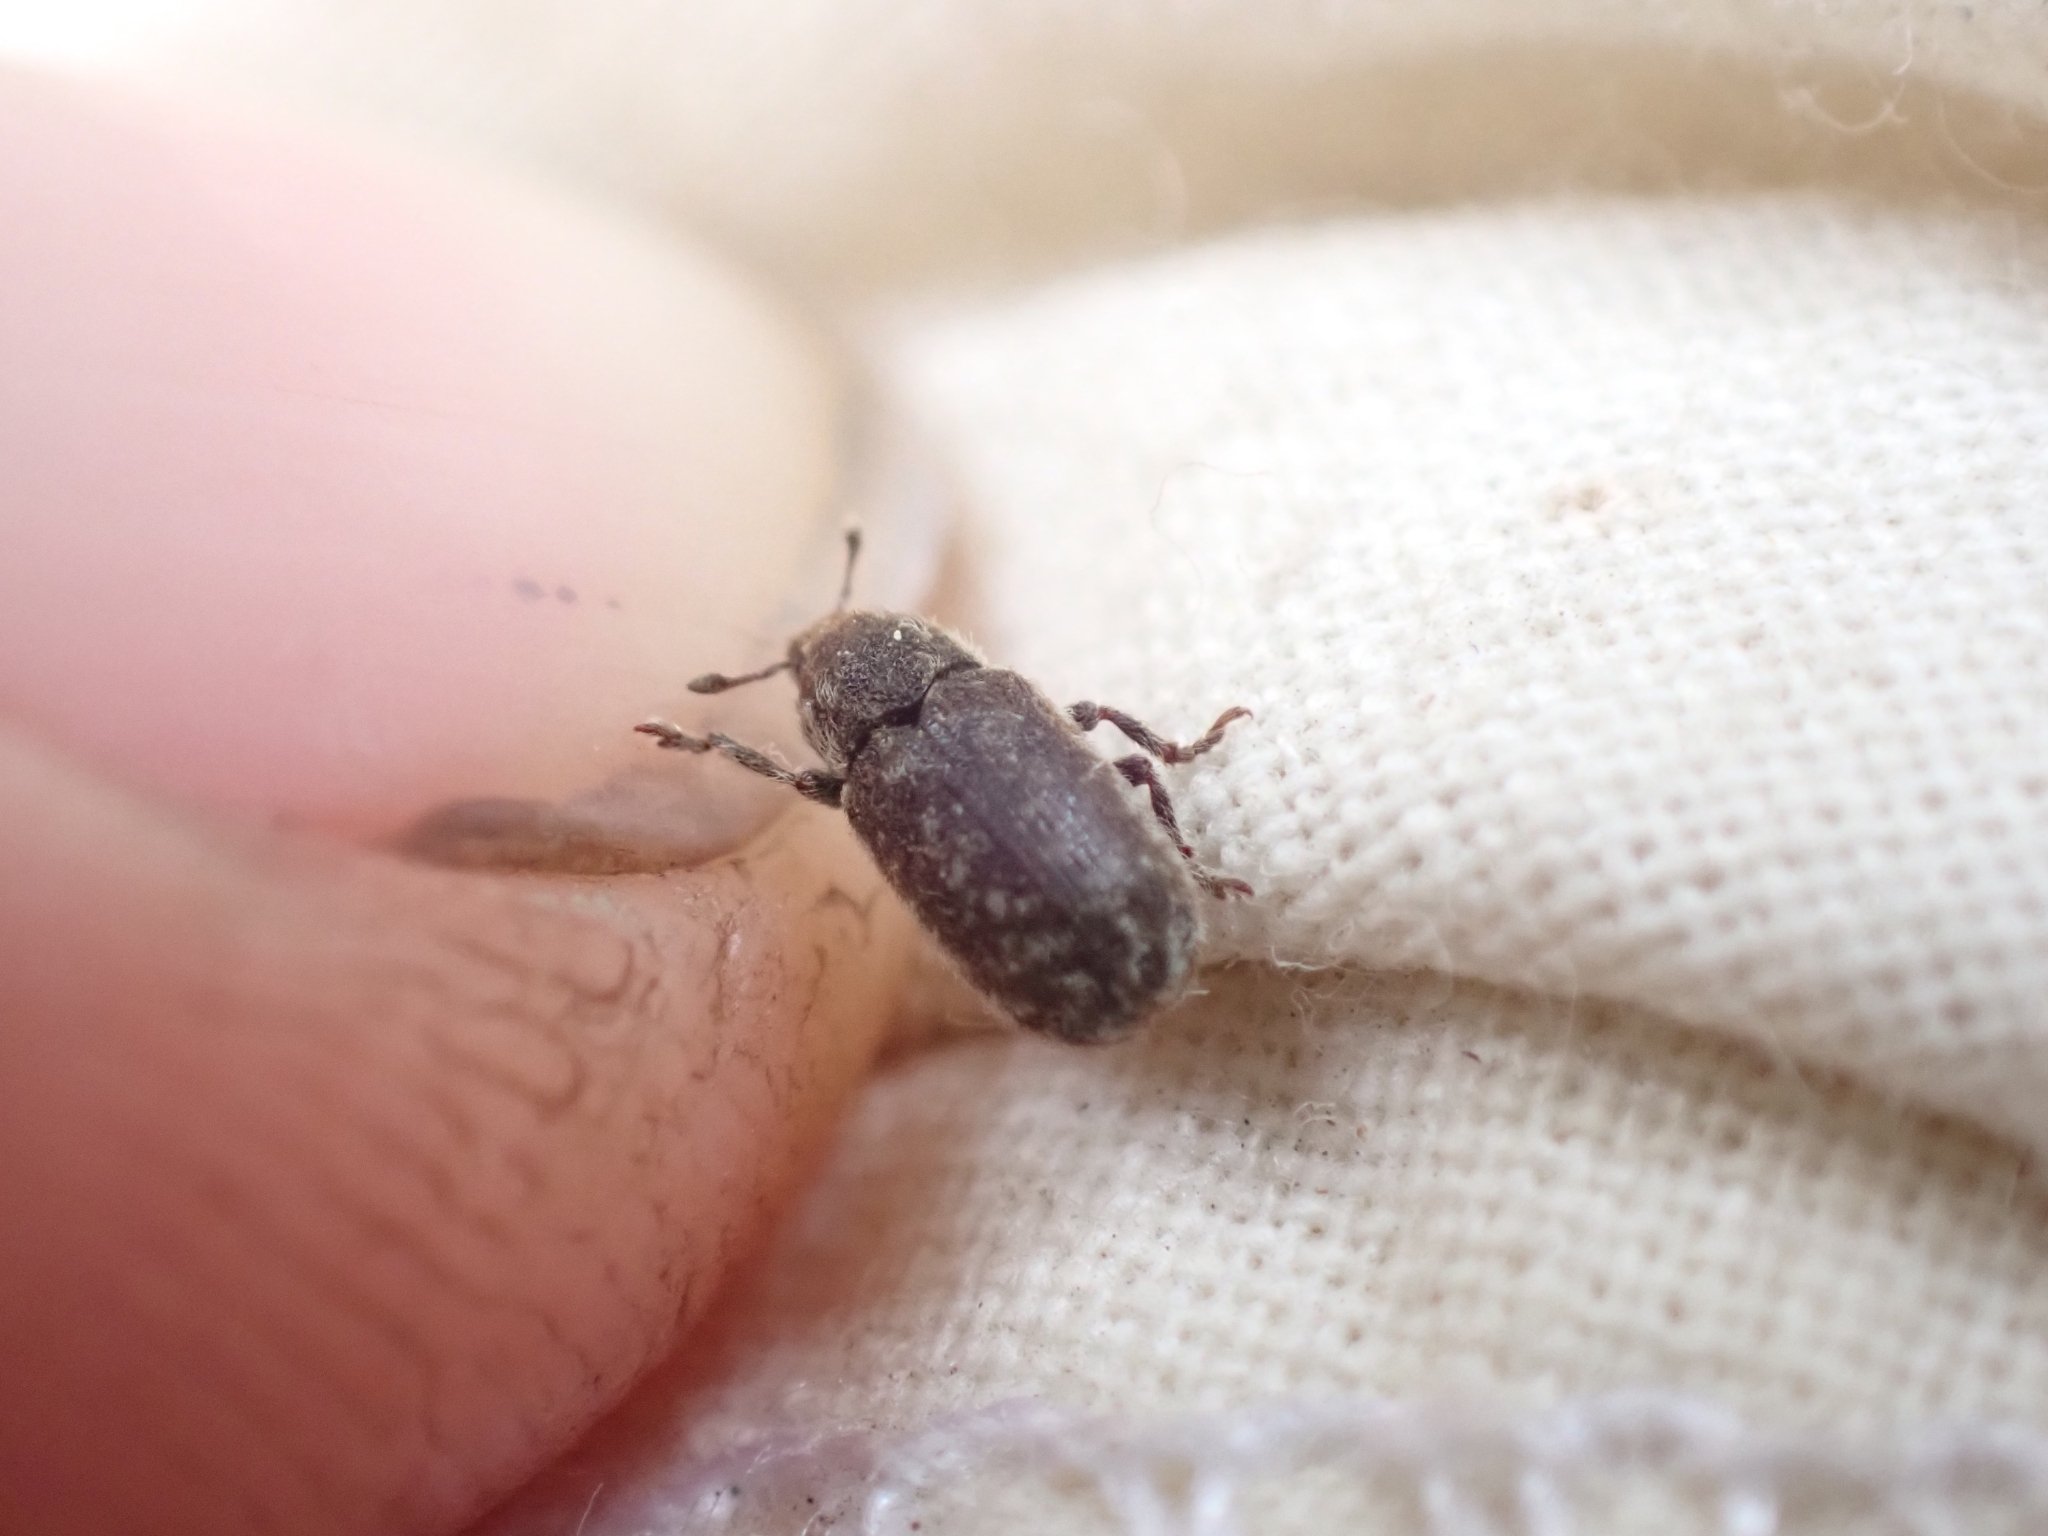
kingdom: Animalia
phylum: Arthropoda
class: Insecta
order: Coleoptera
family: Curculionidae
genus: Bangasternus
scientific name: Bangasternus fausti
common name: Broad-nosed knapweed seedhead weevil
